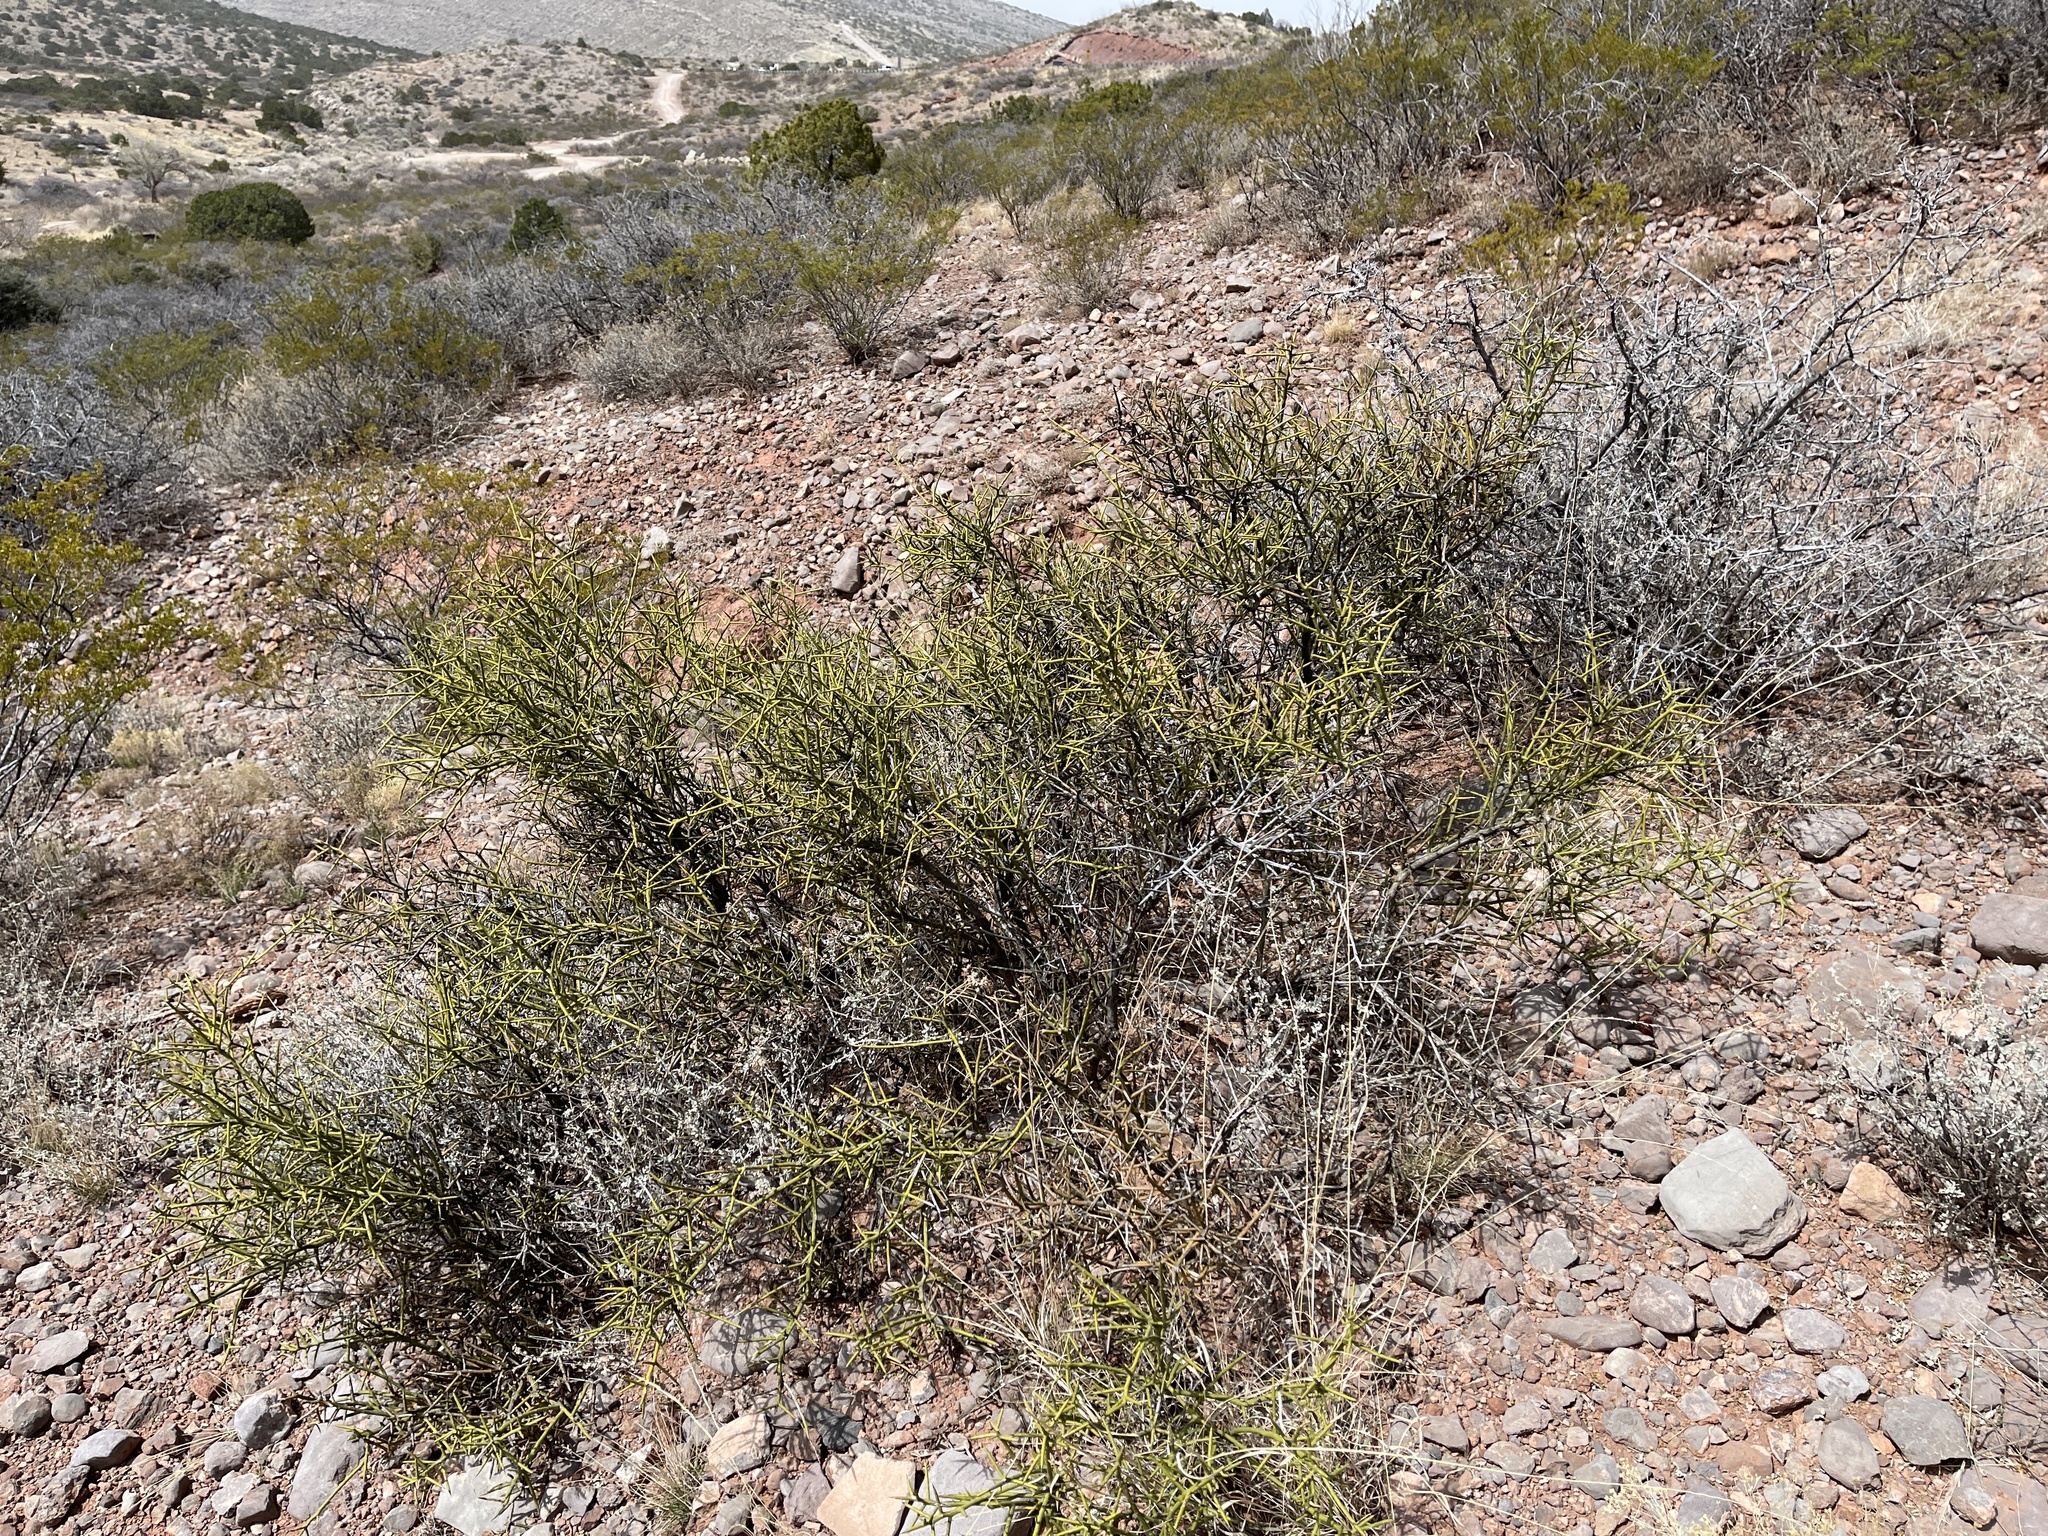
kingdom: Plantae
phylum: Tracheophyta
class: Magnoliopsida
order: Brassicales
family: Koeberliniaceae
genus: Koeberlinia
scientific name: Koeberlinia spinosa
